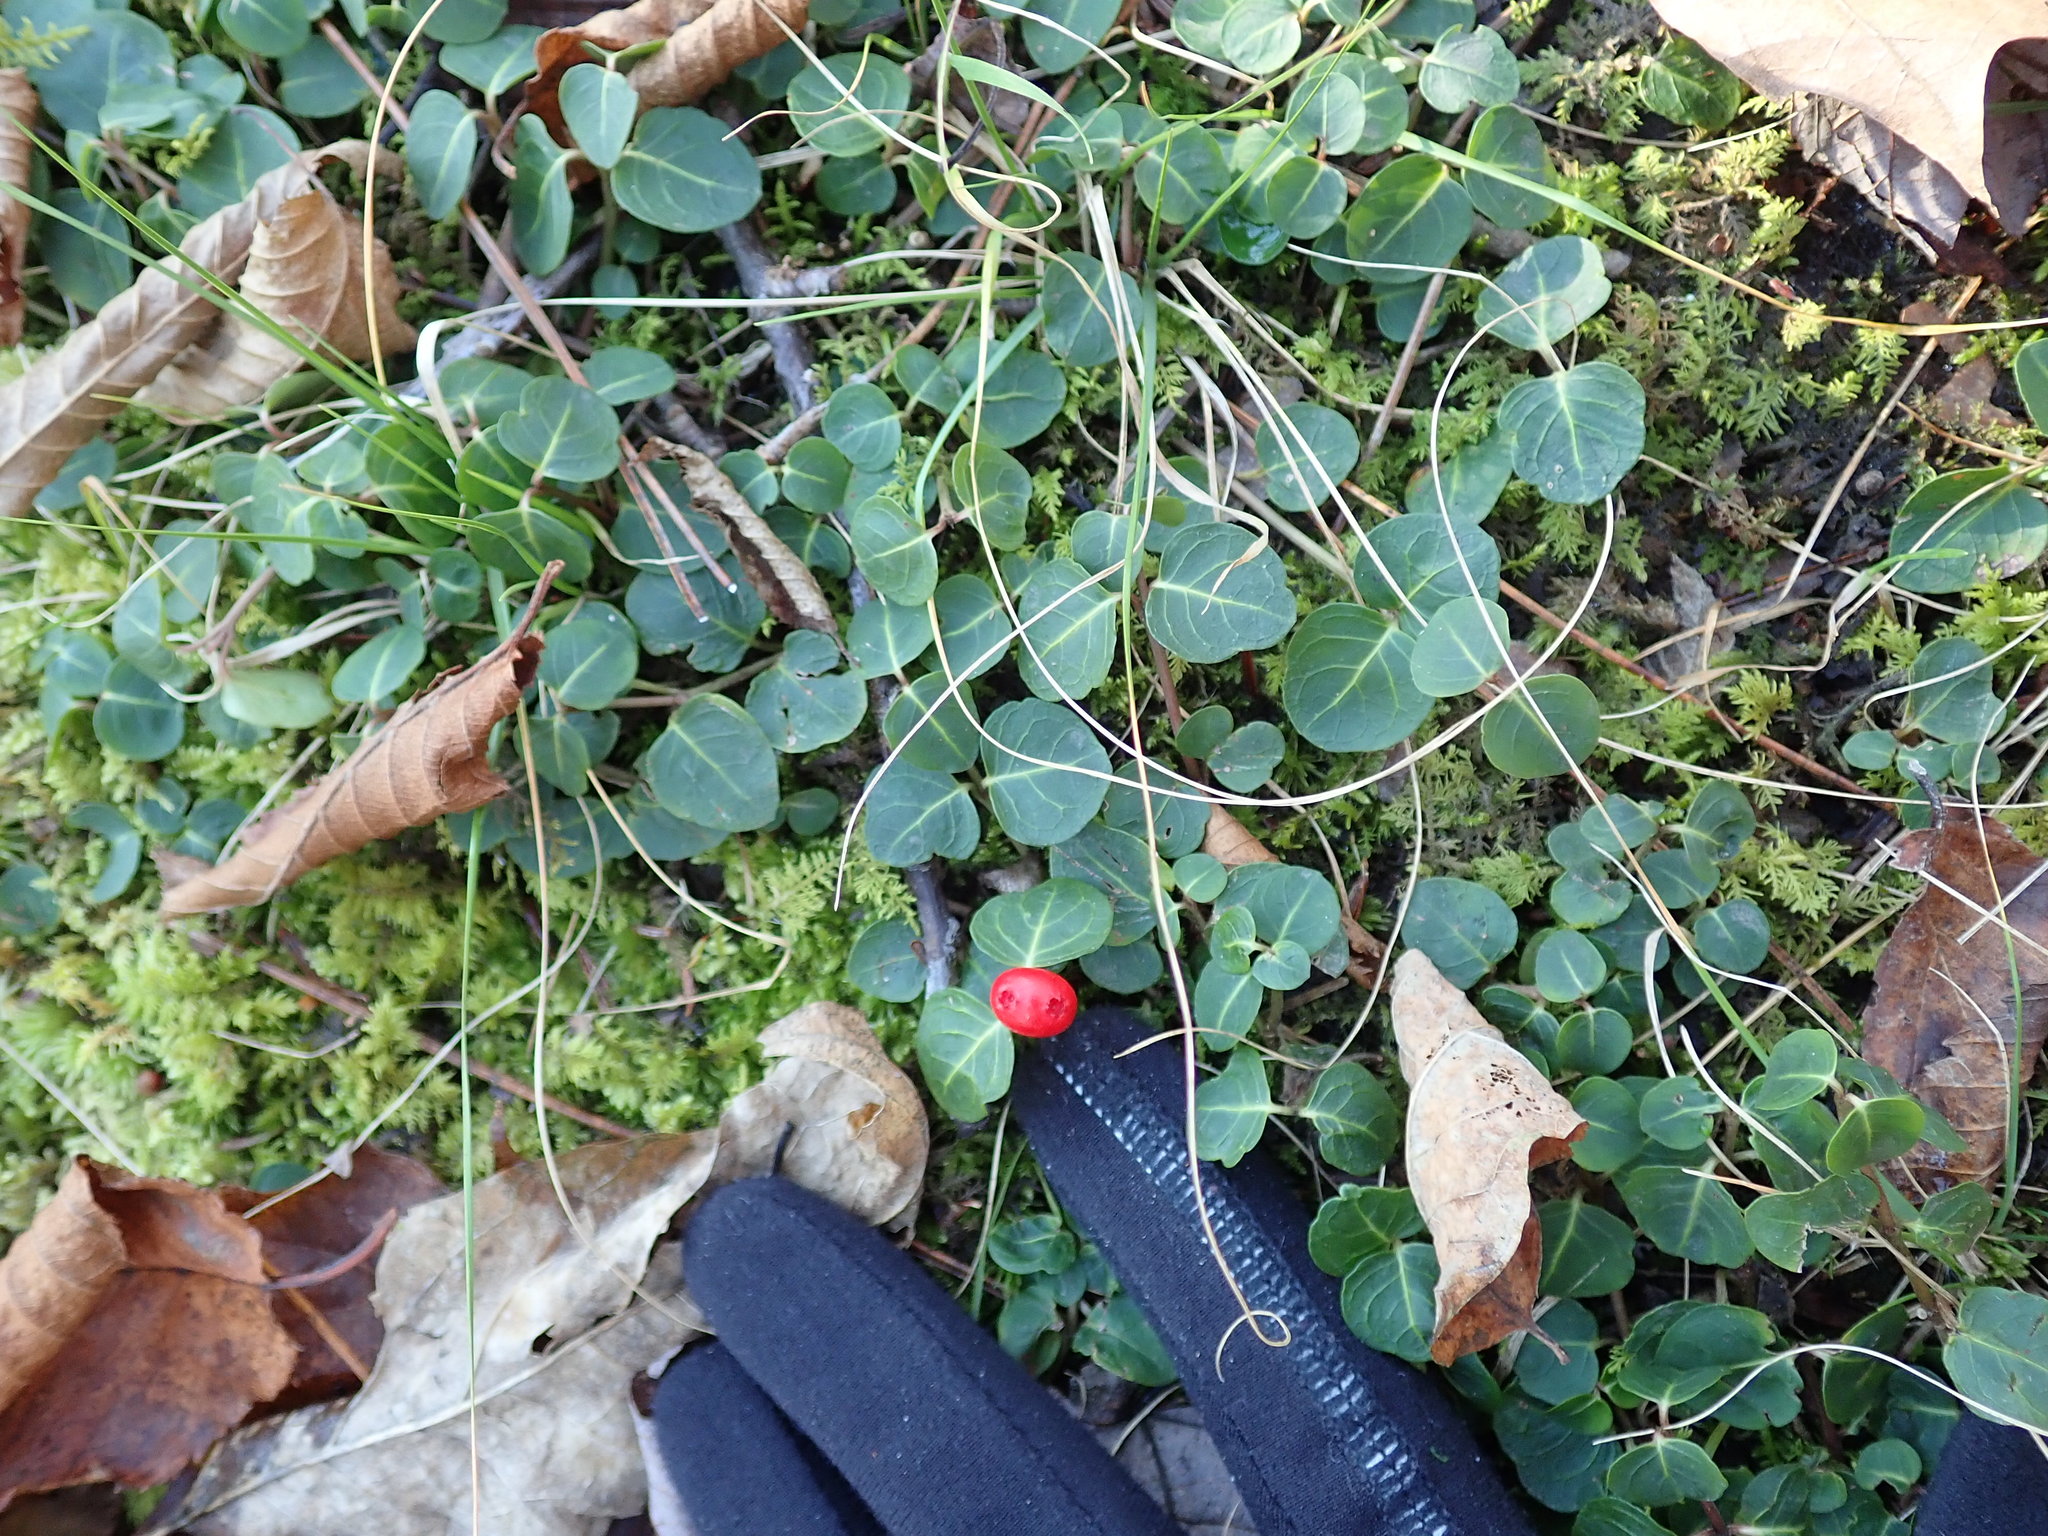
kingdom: Plantae
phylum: Tracheophyta
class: Magnoliopsida
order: Gentianales
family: Rubiaceae
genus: Mitchella
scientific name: Mitchella repens
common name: Partridge-berry
